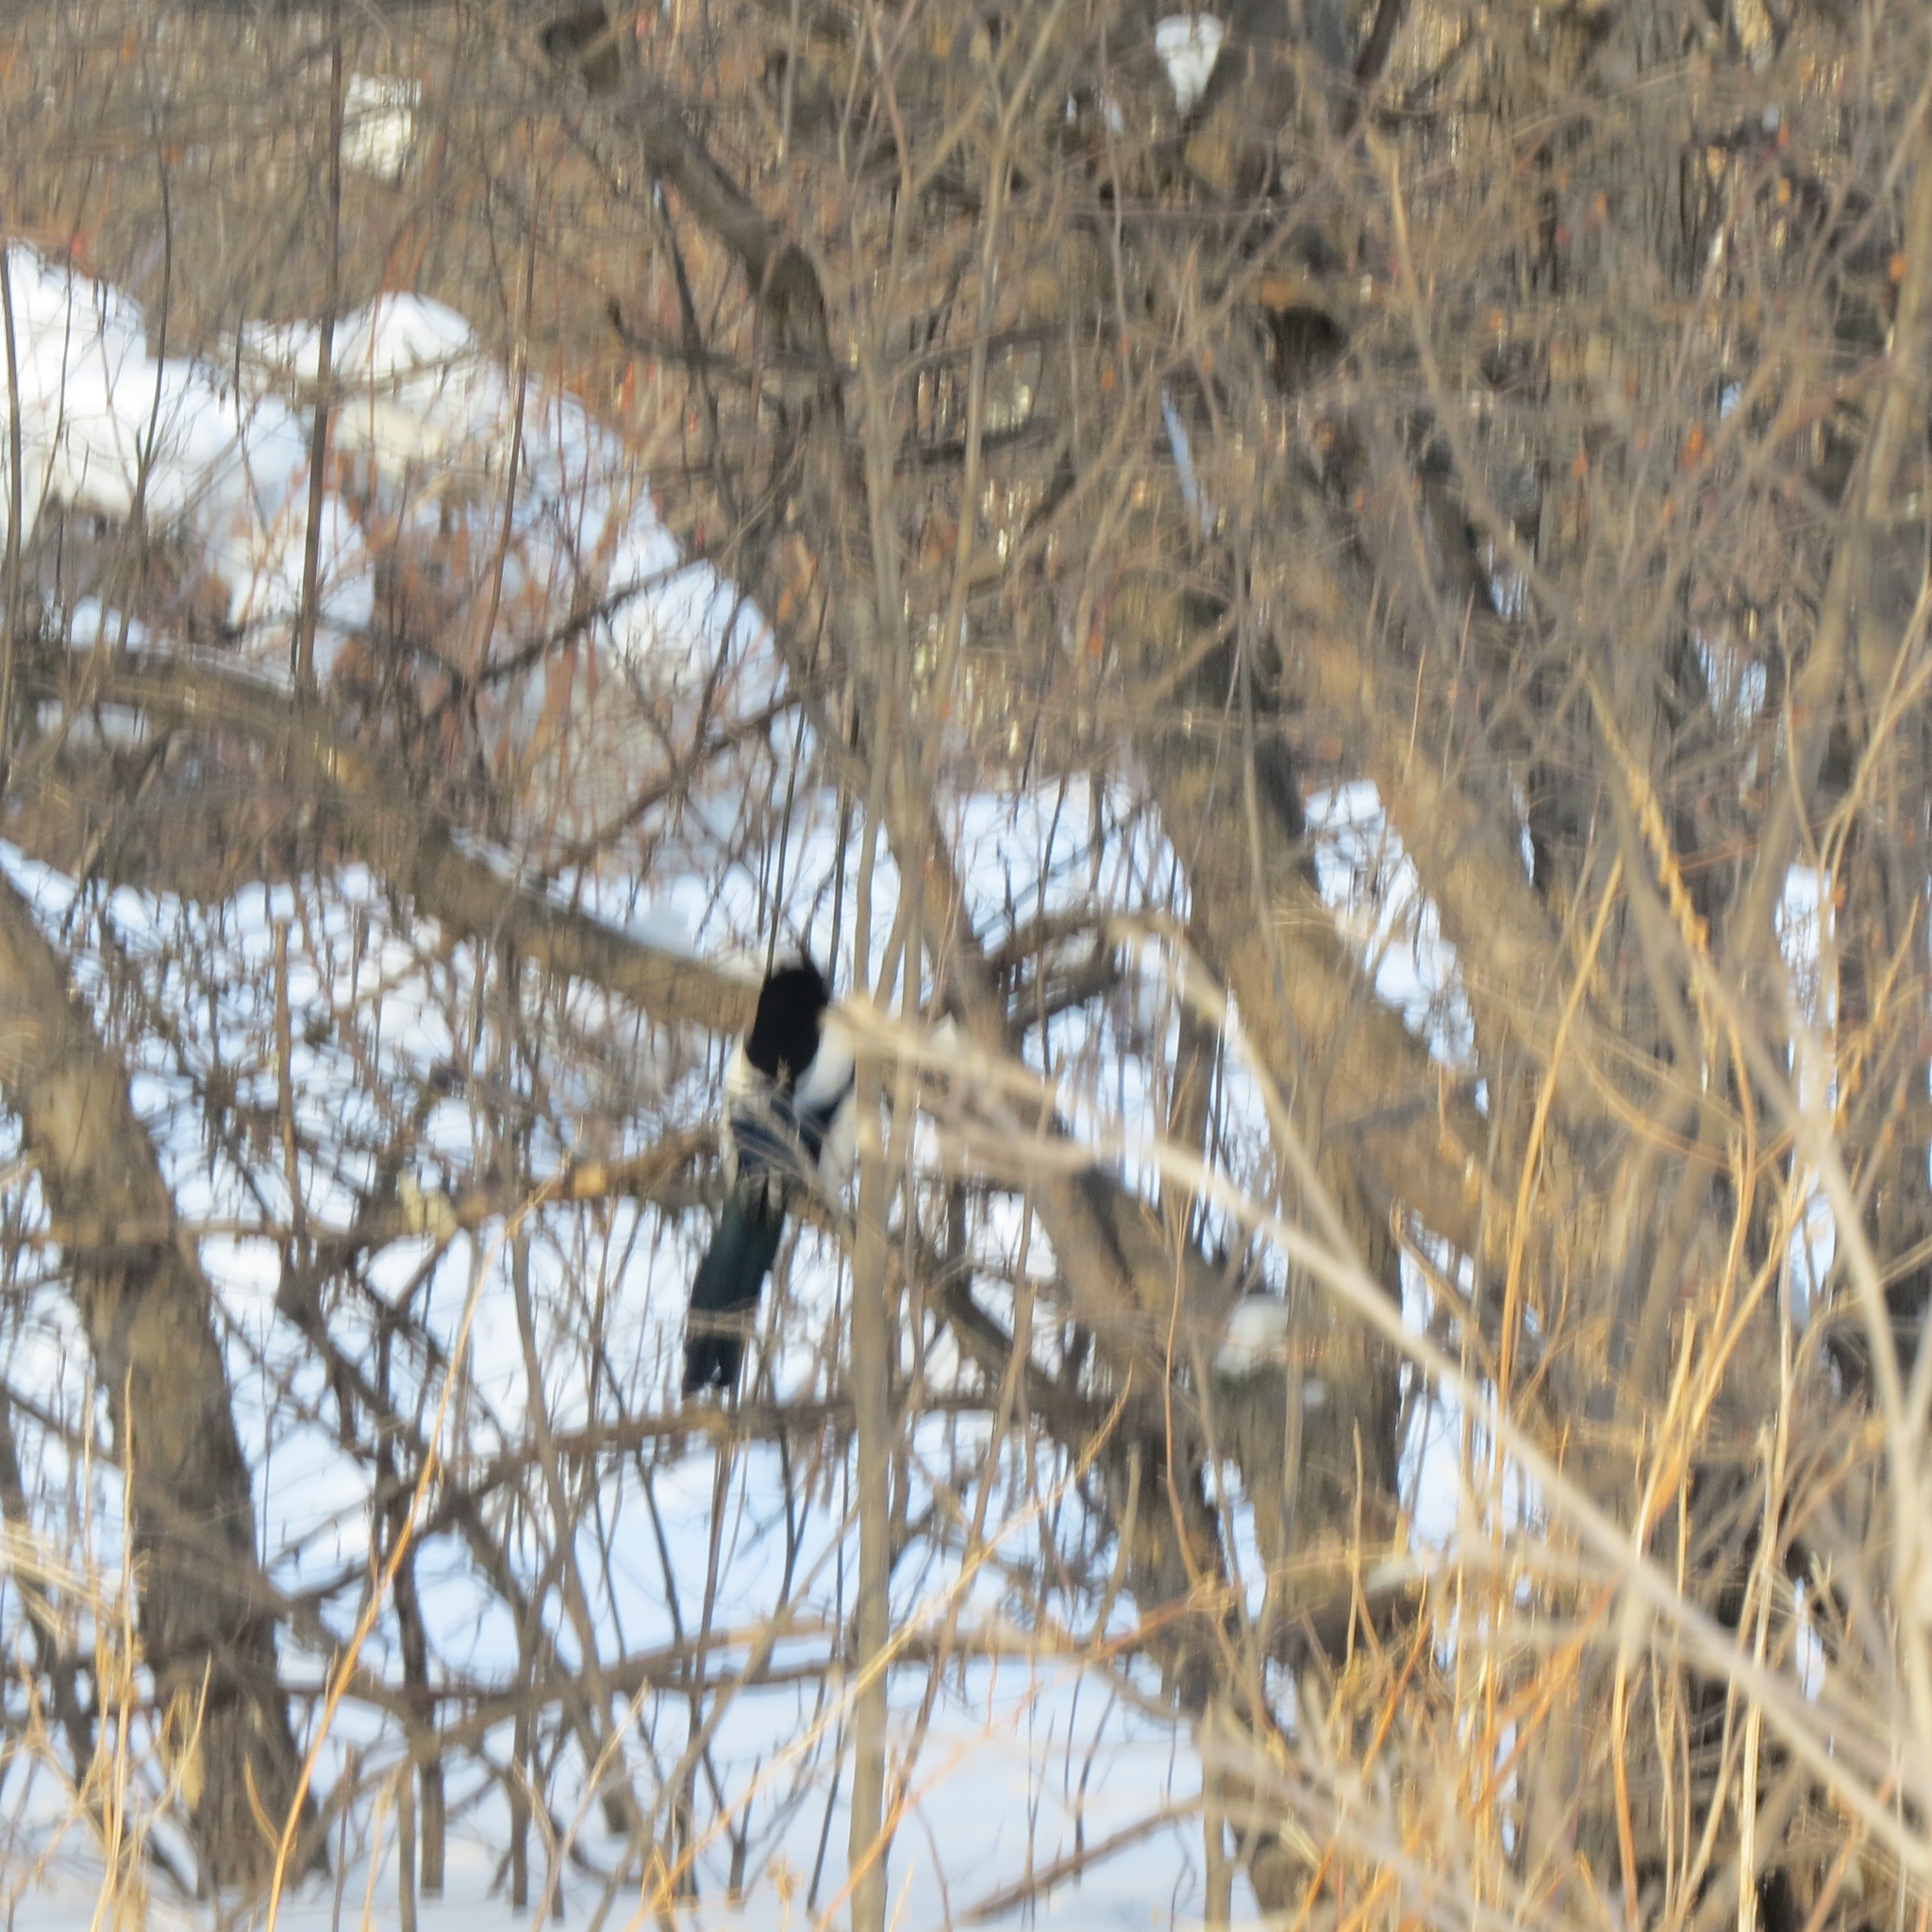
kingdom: Animalia
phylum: Chordata
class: Aves
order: Passeriformes
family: Corvidae
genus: Pica
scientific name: Pica pica
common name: Eurasian magpie
